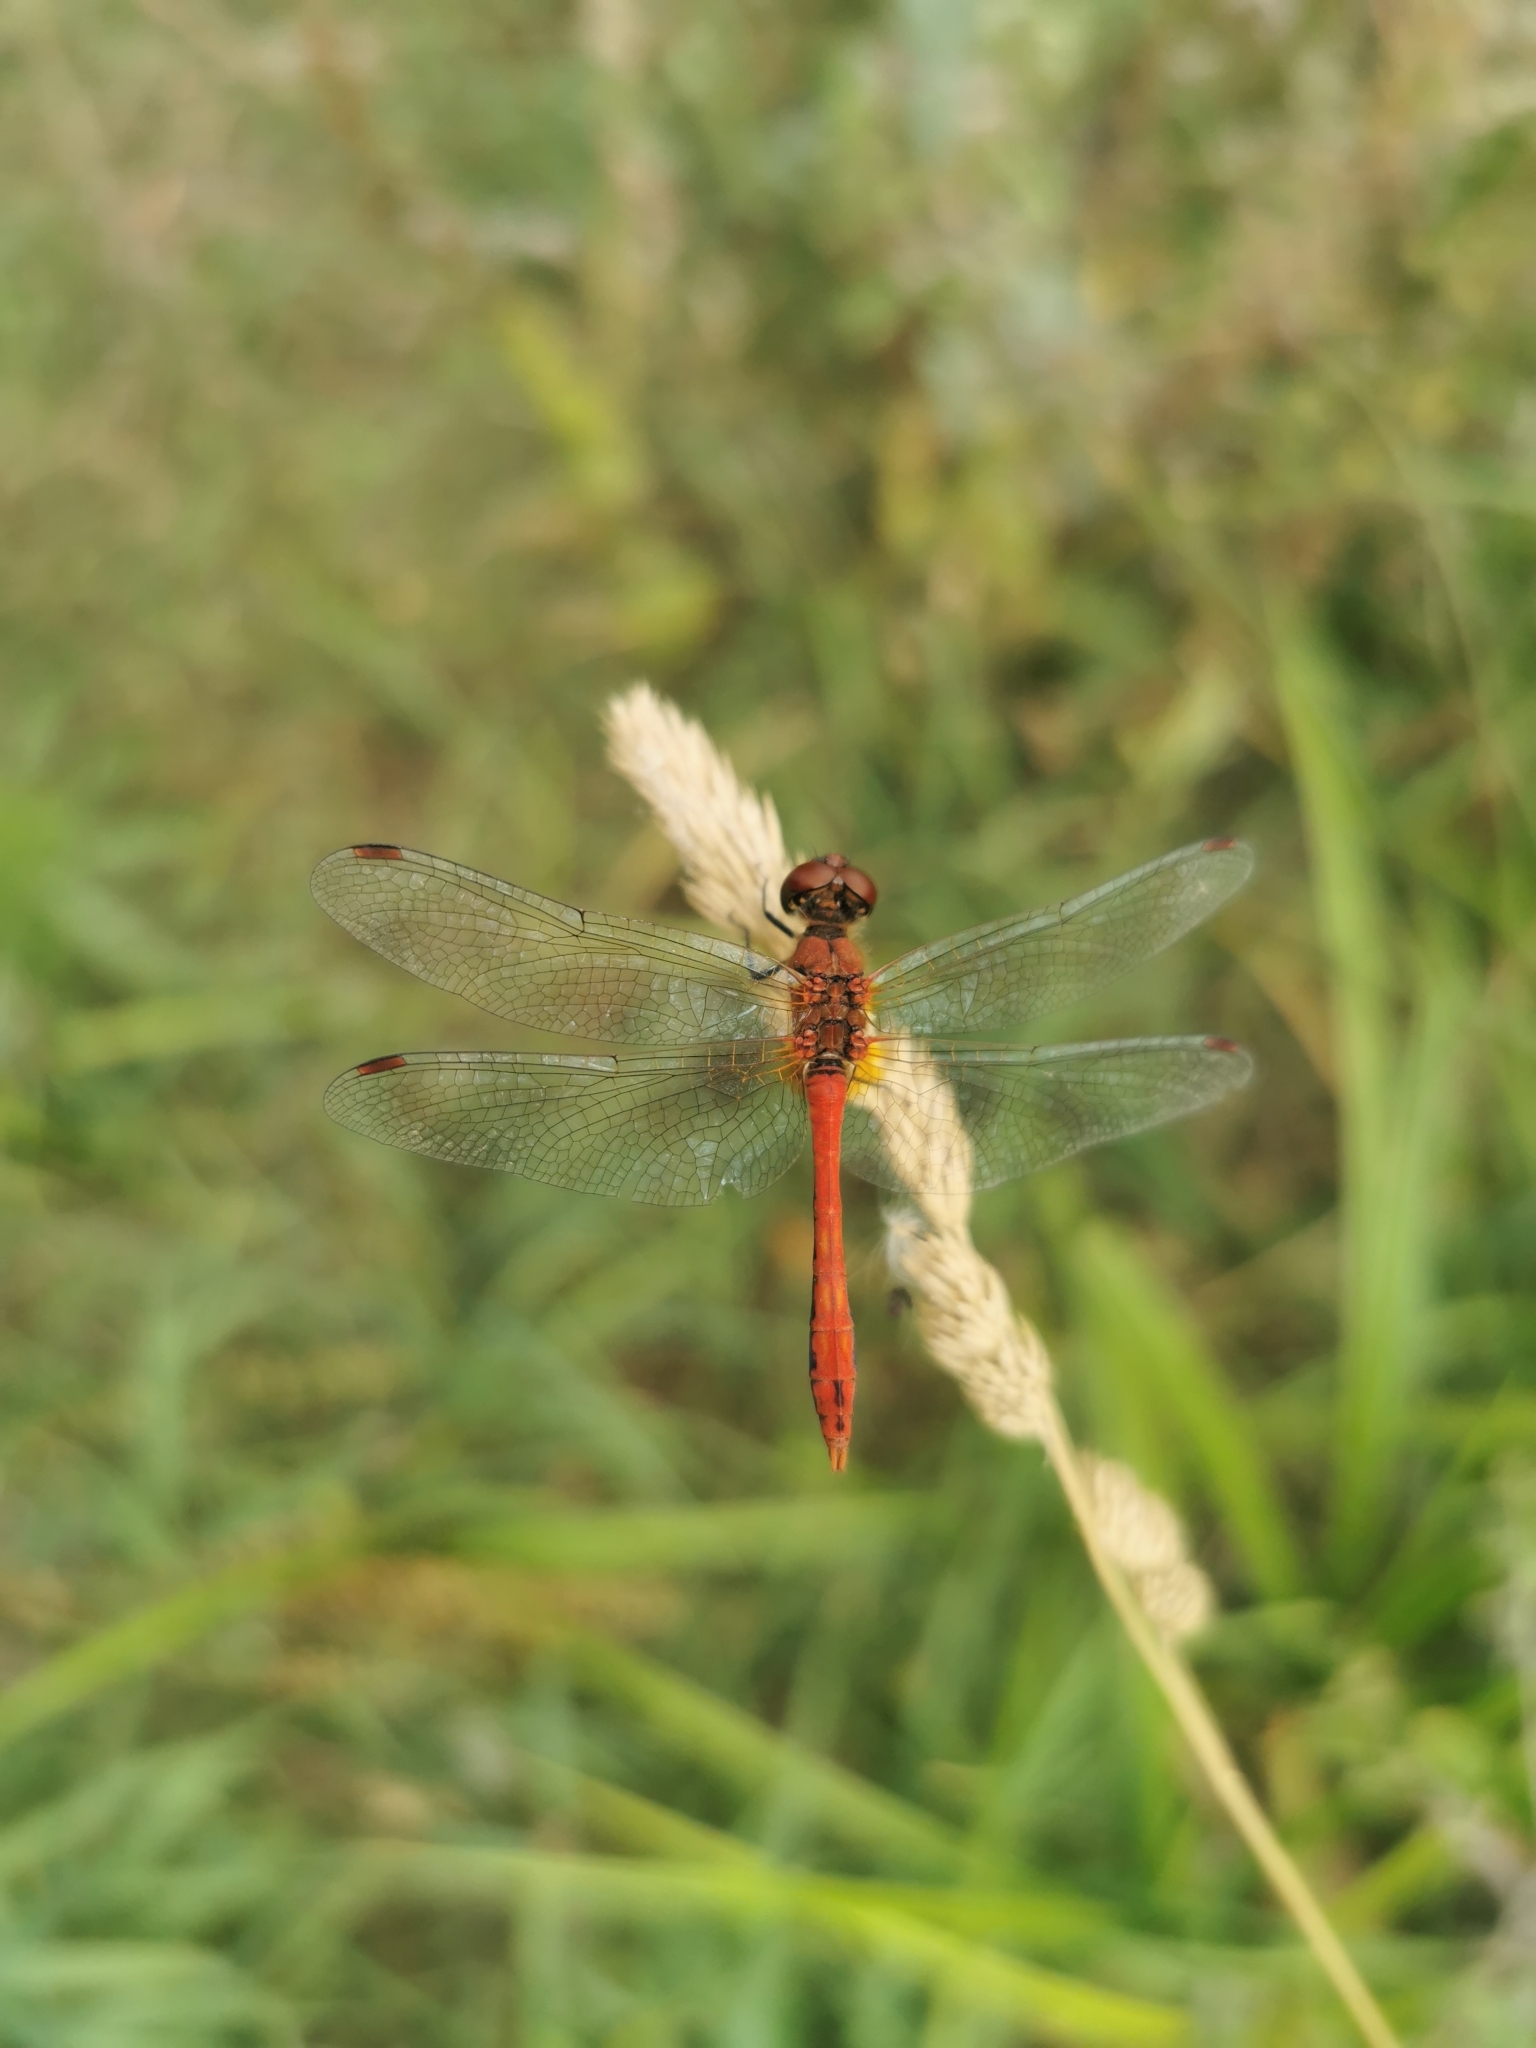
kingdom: Animalia
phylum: Arthropoda
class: Insecta
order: Odonata
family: Libellulidae
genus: Sympetrum
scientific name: Sympetrum sanguineum
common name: Ruddy darter
